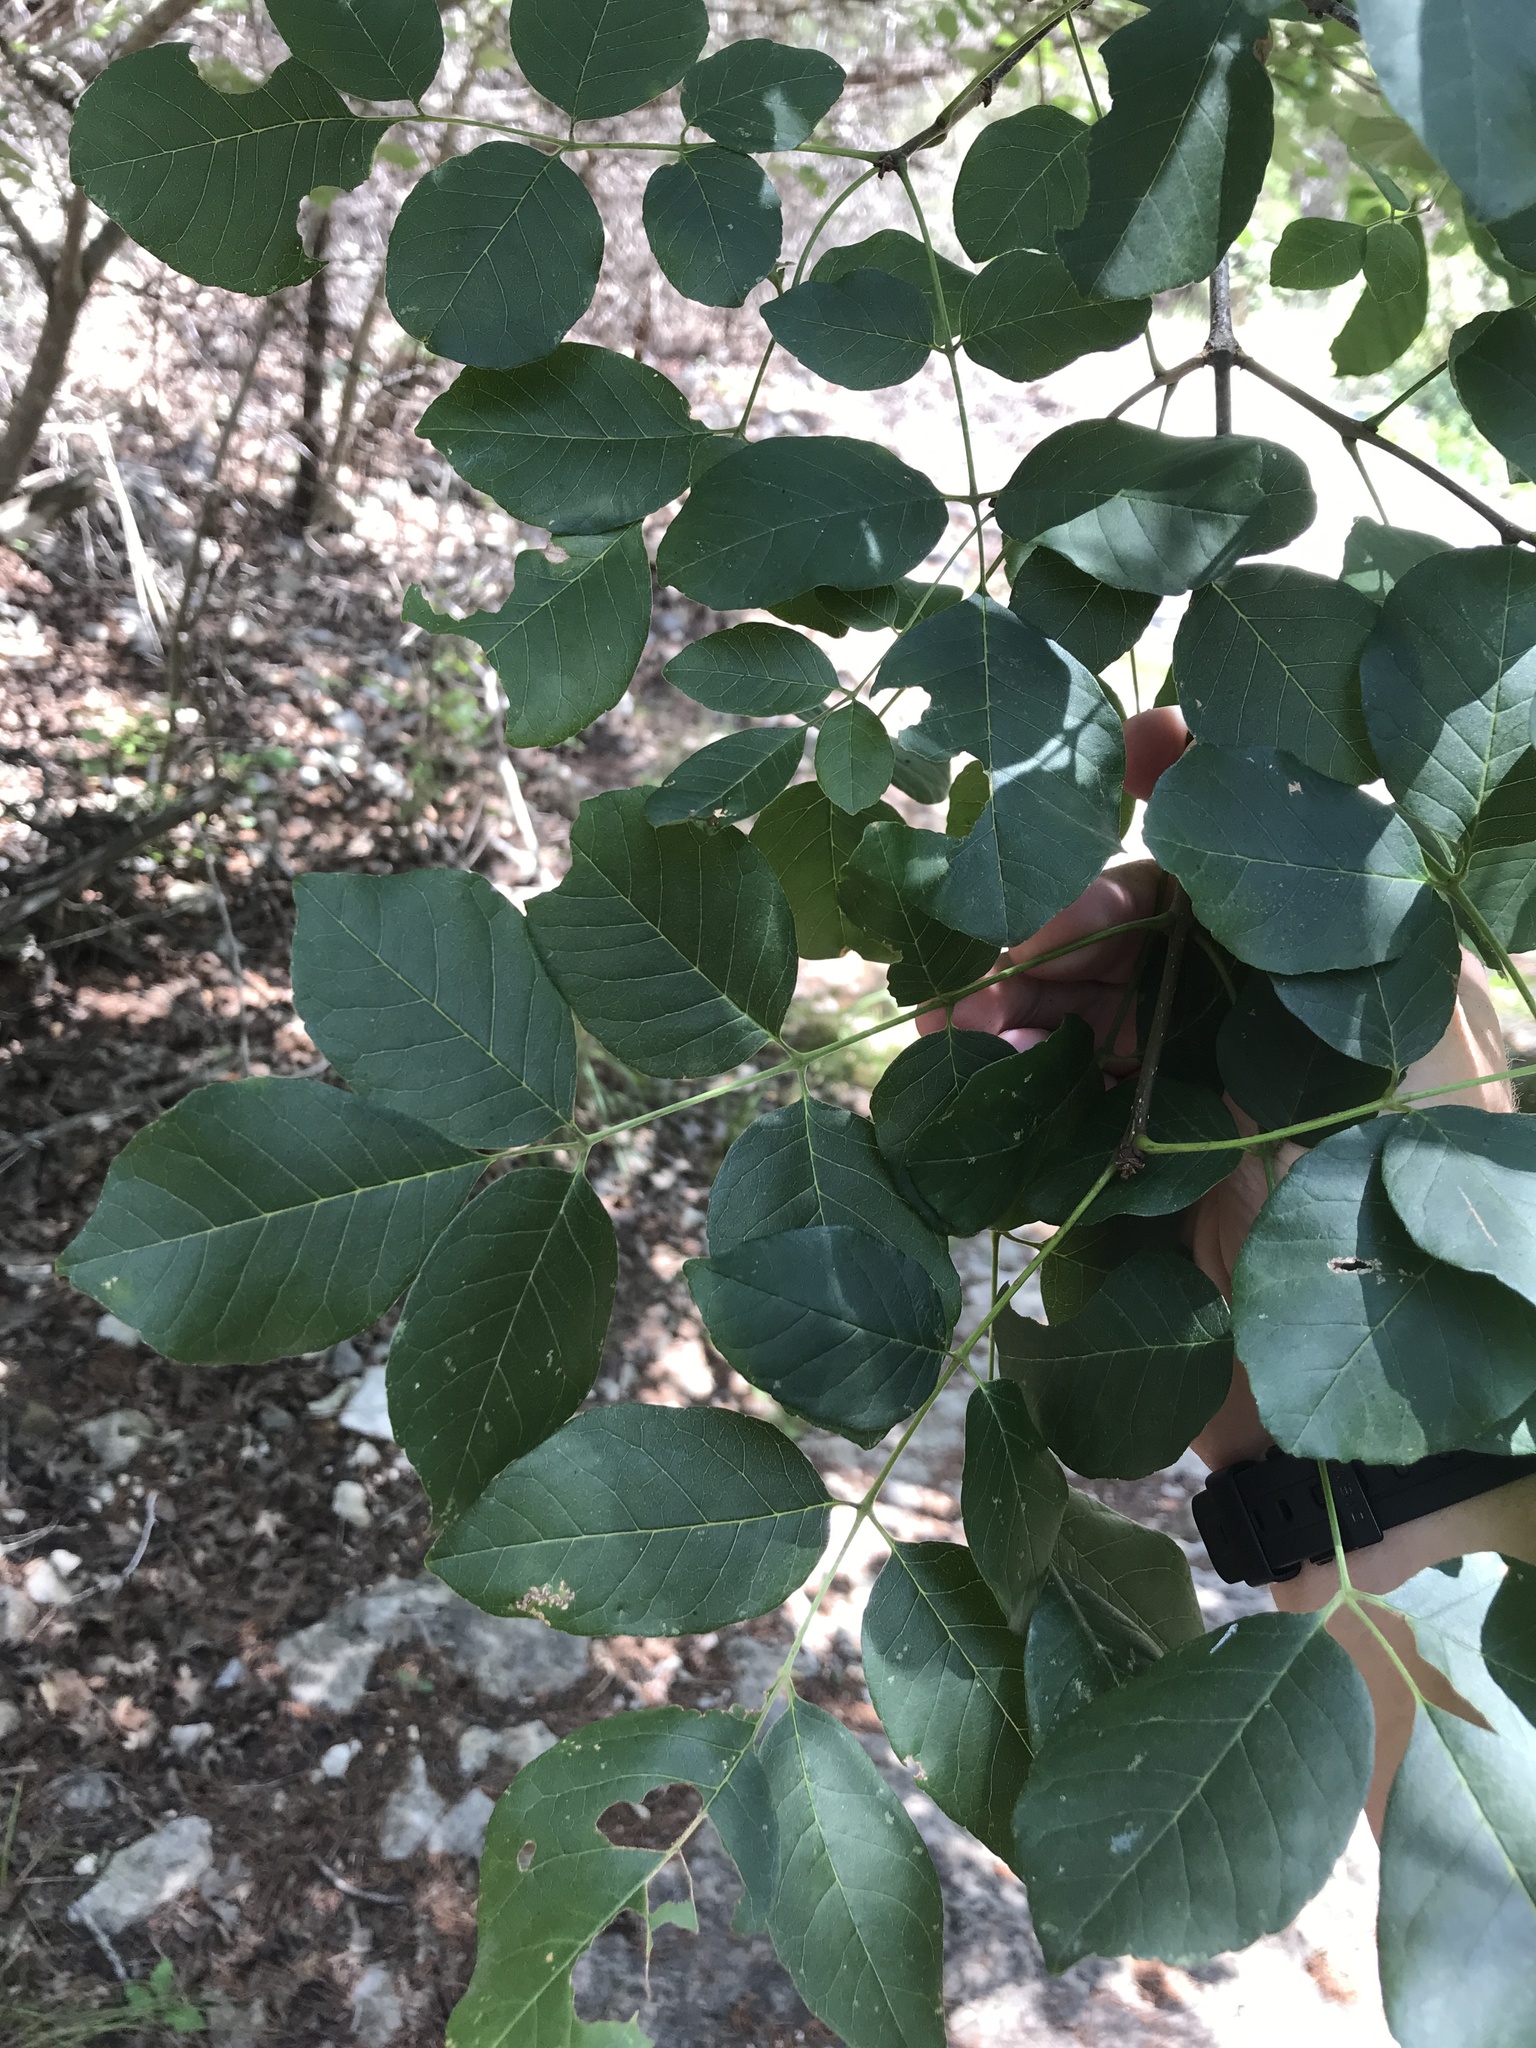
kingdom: Plantae
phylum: Tracheophyta
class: Magnoliopsida
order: Lamiales
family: Oleaceae
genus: Fraxinus
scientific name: Fraxinus albicans
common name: Texas ash
